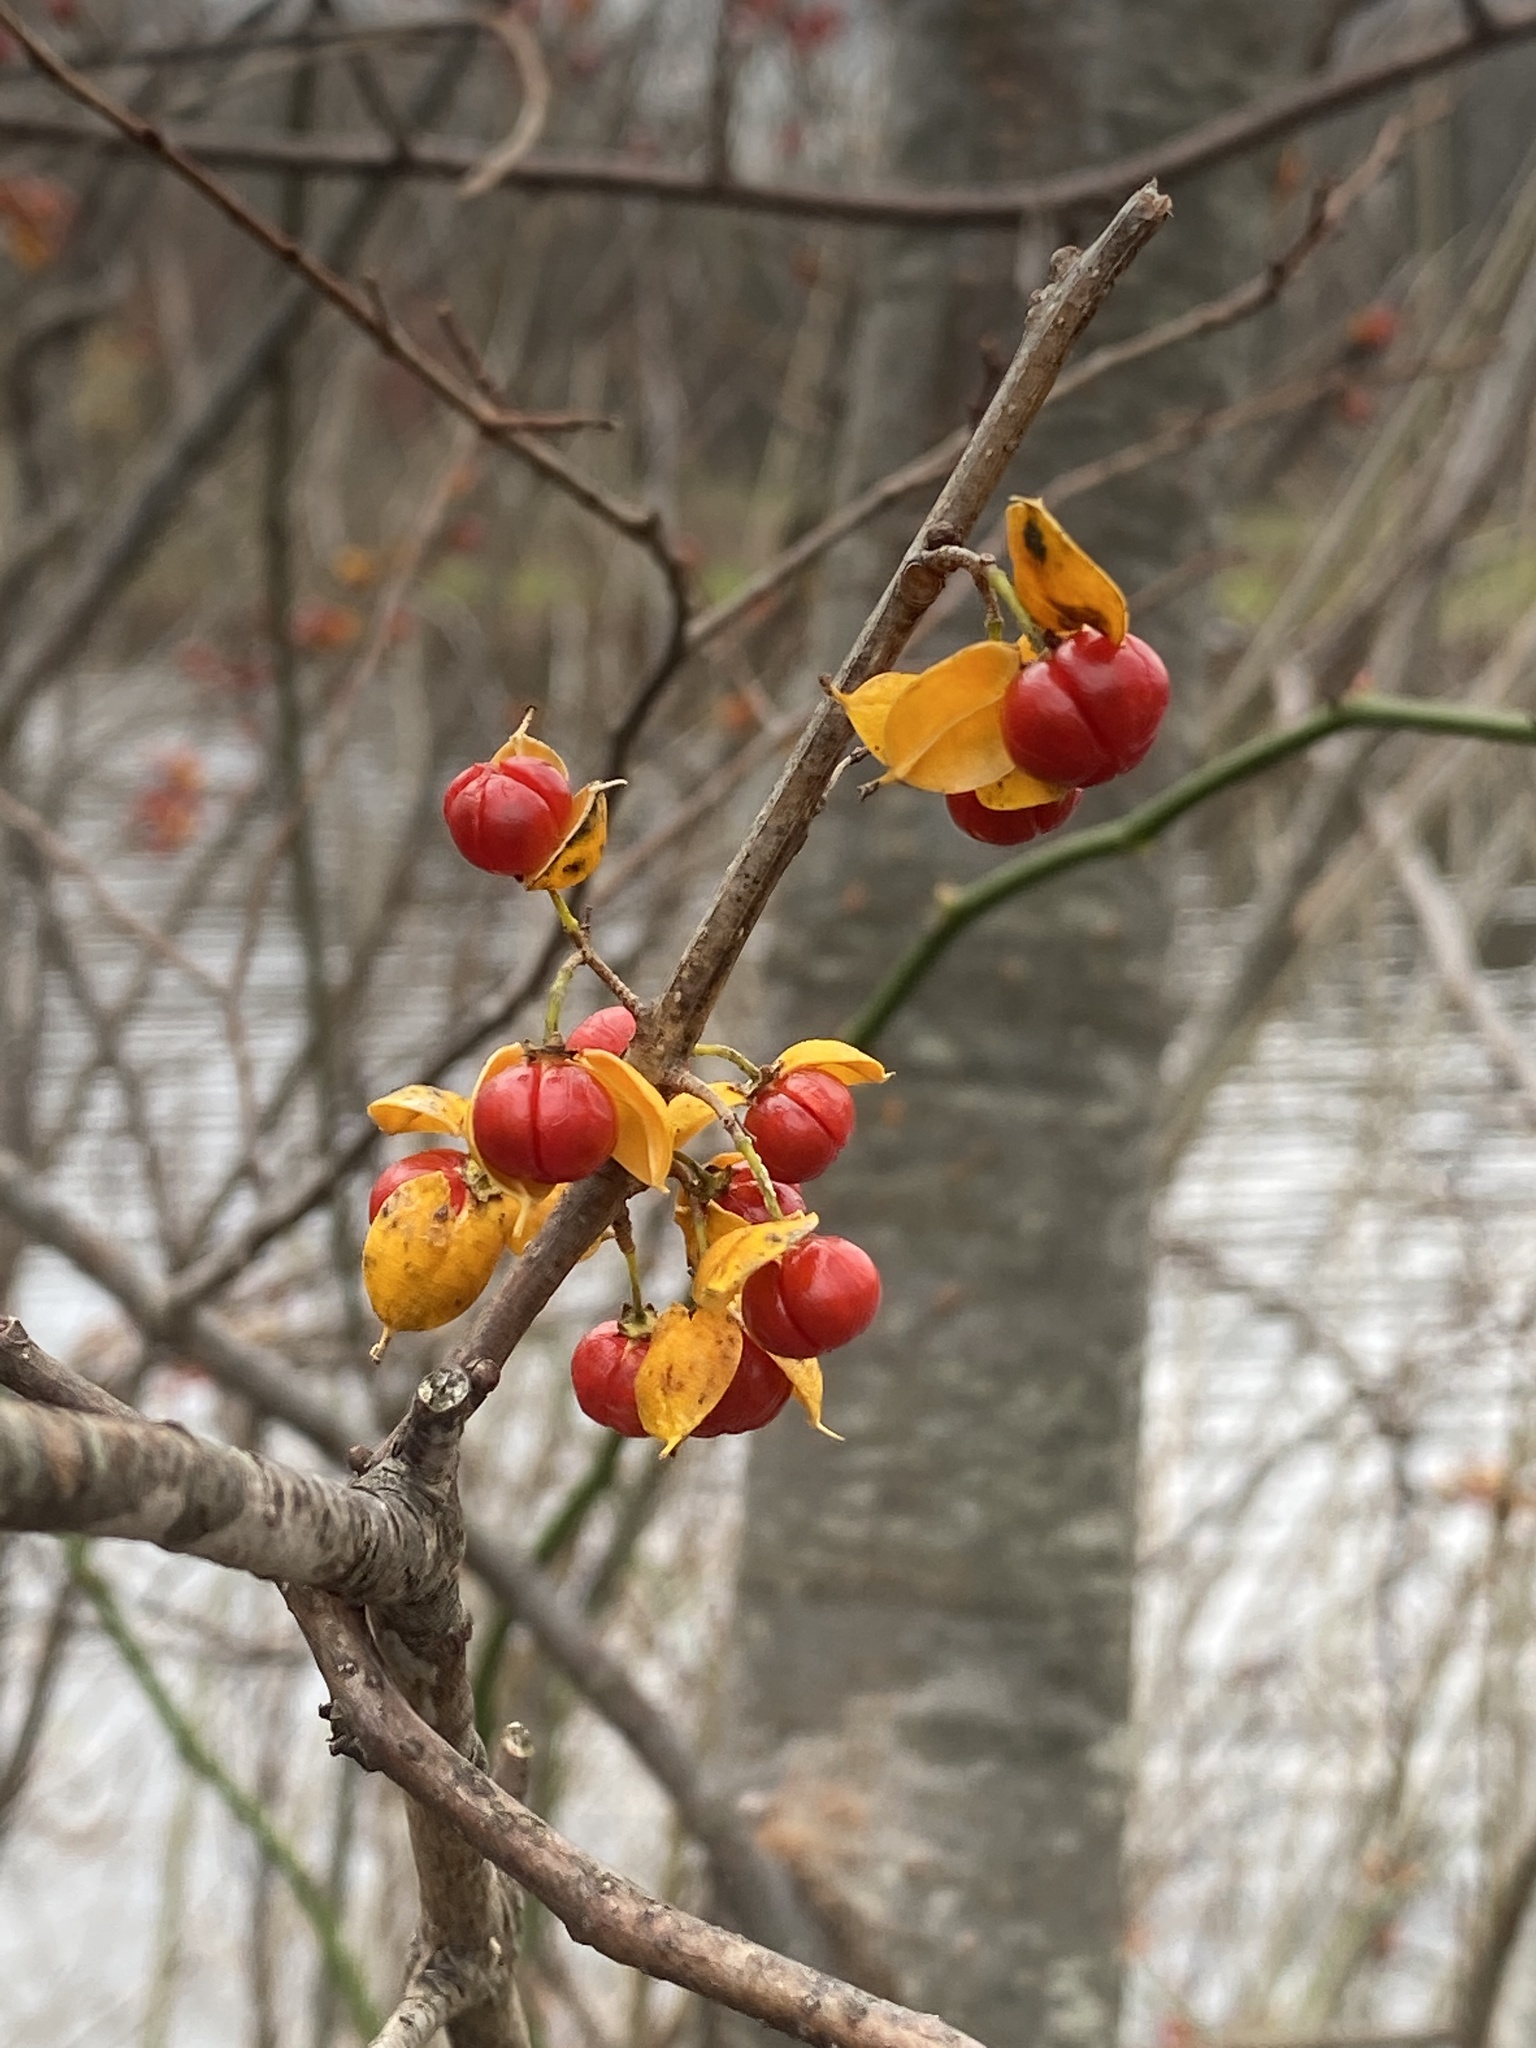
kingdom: Plantae
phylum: Tracheophyta
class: Magnoliopsida
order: Celastrales
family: Celastraceae
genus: Celastrus
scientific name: Celastrus orbiculatus
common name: Oriental bittersweet
